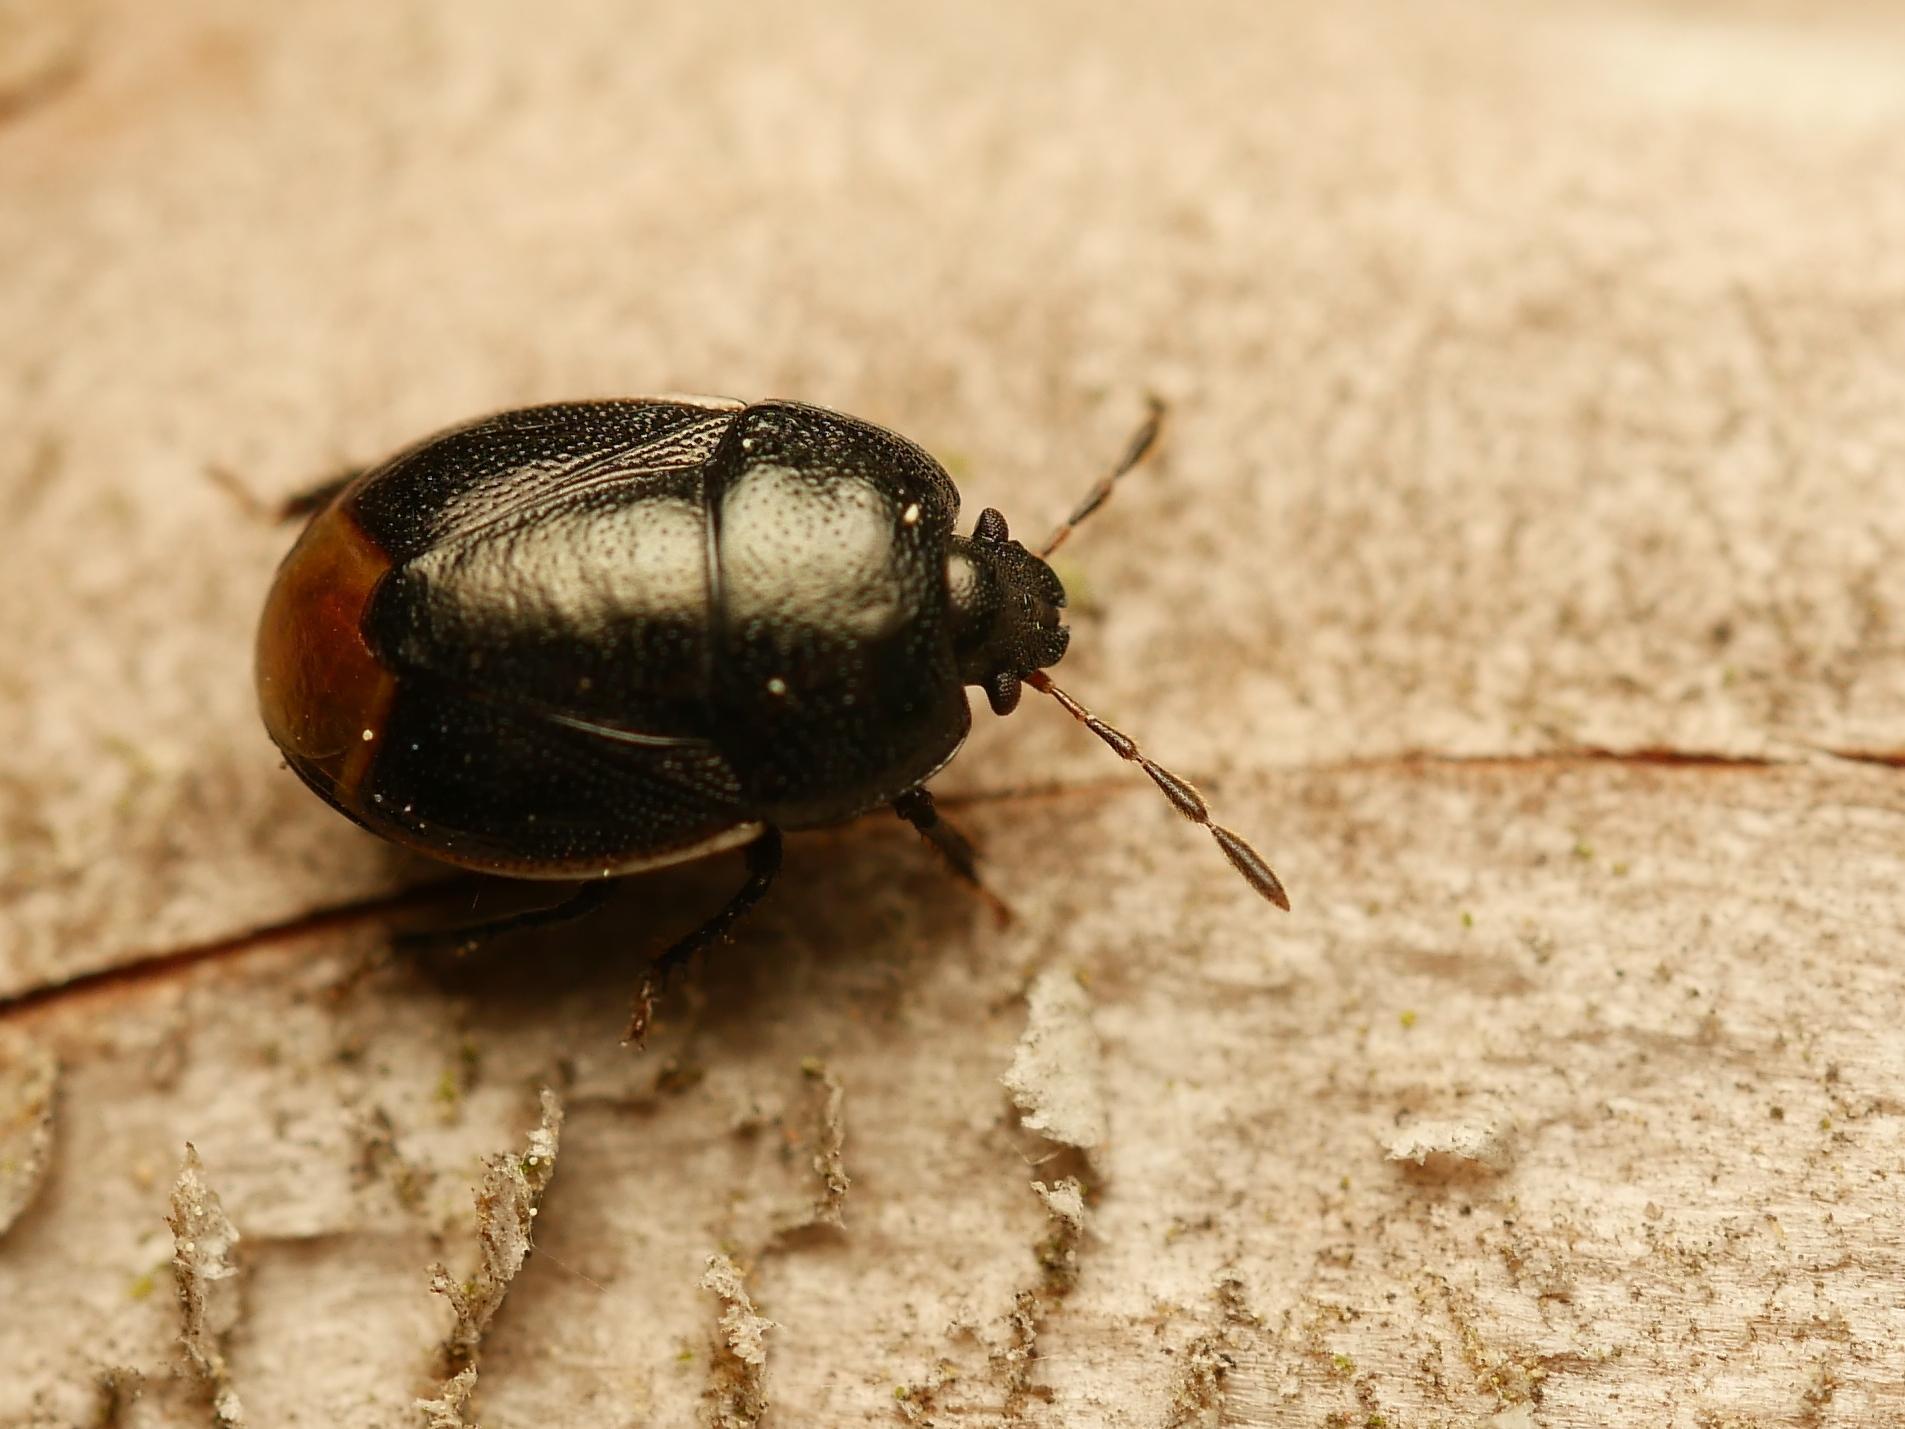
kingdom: Animalia
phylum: Arthropoda
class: Insecta
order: Hemiptera
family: Cydnidae
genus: Legnotus
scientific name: Legnotus limbosus
